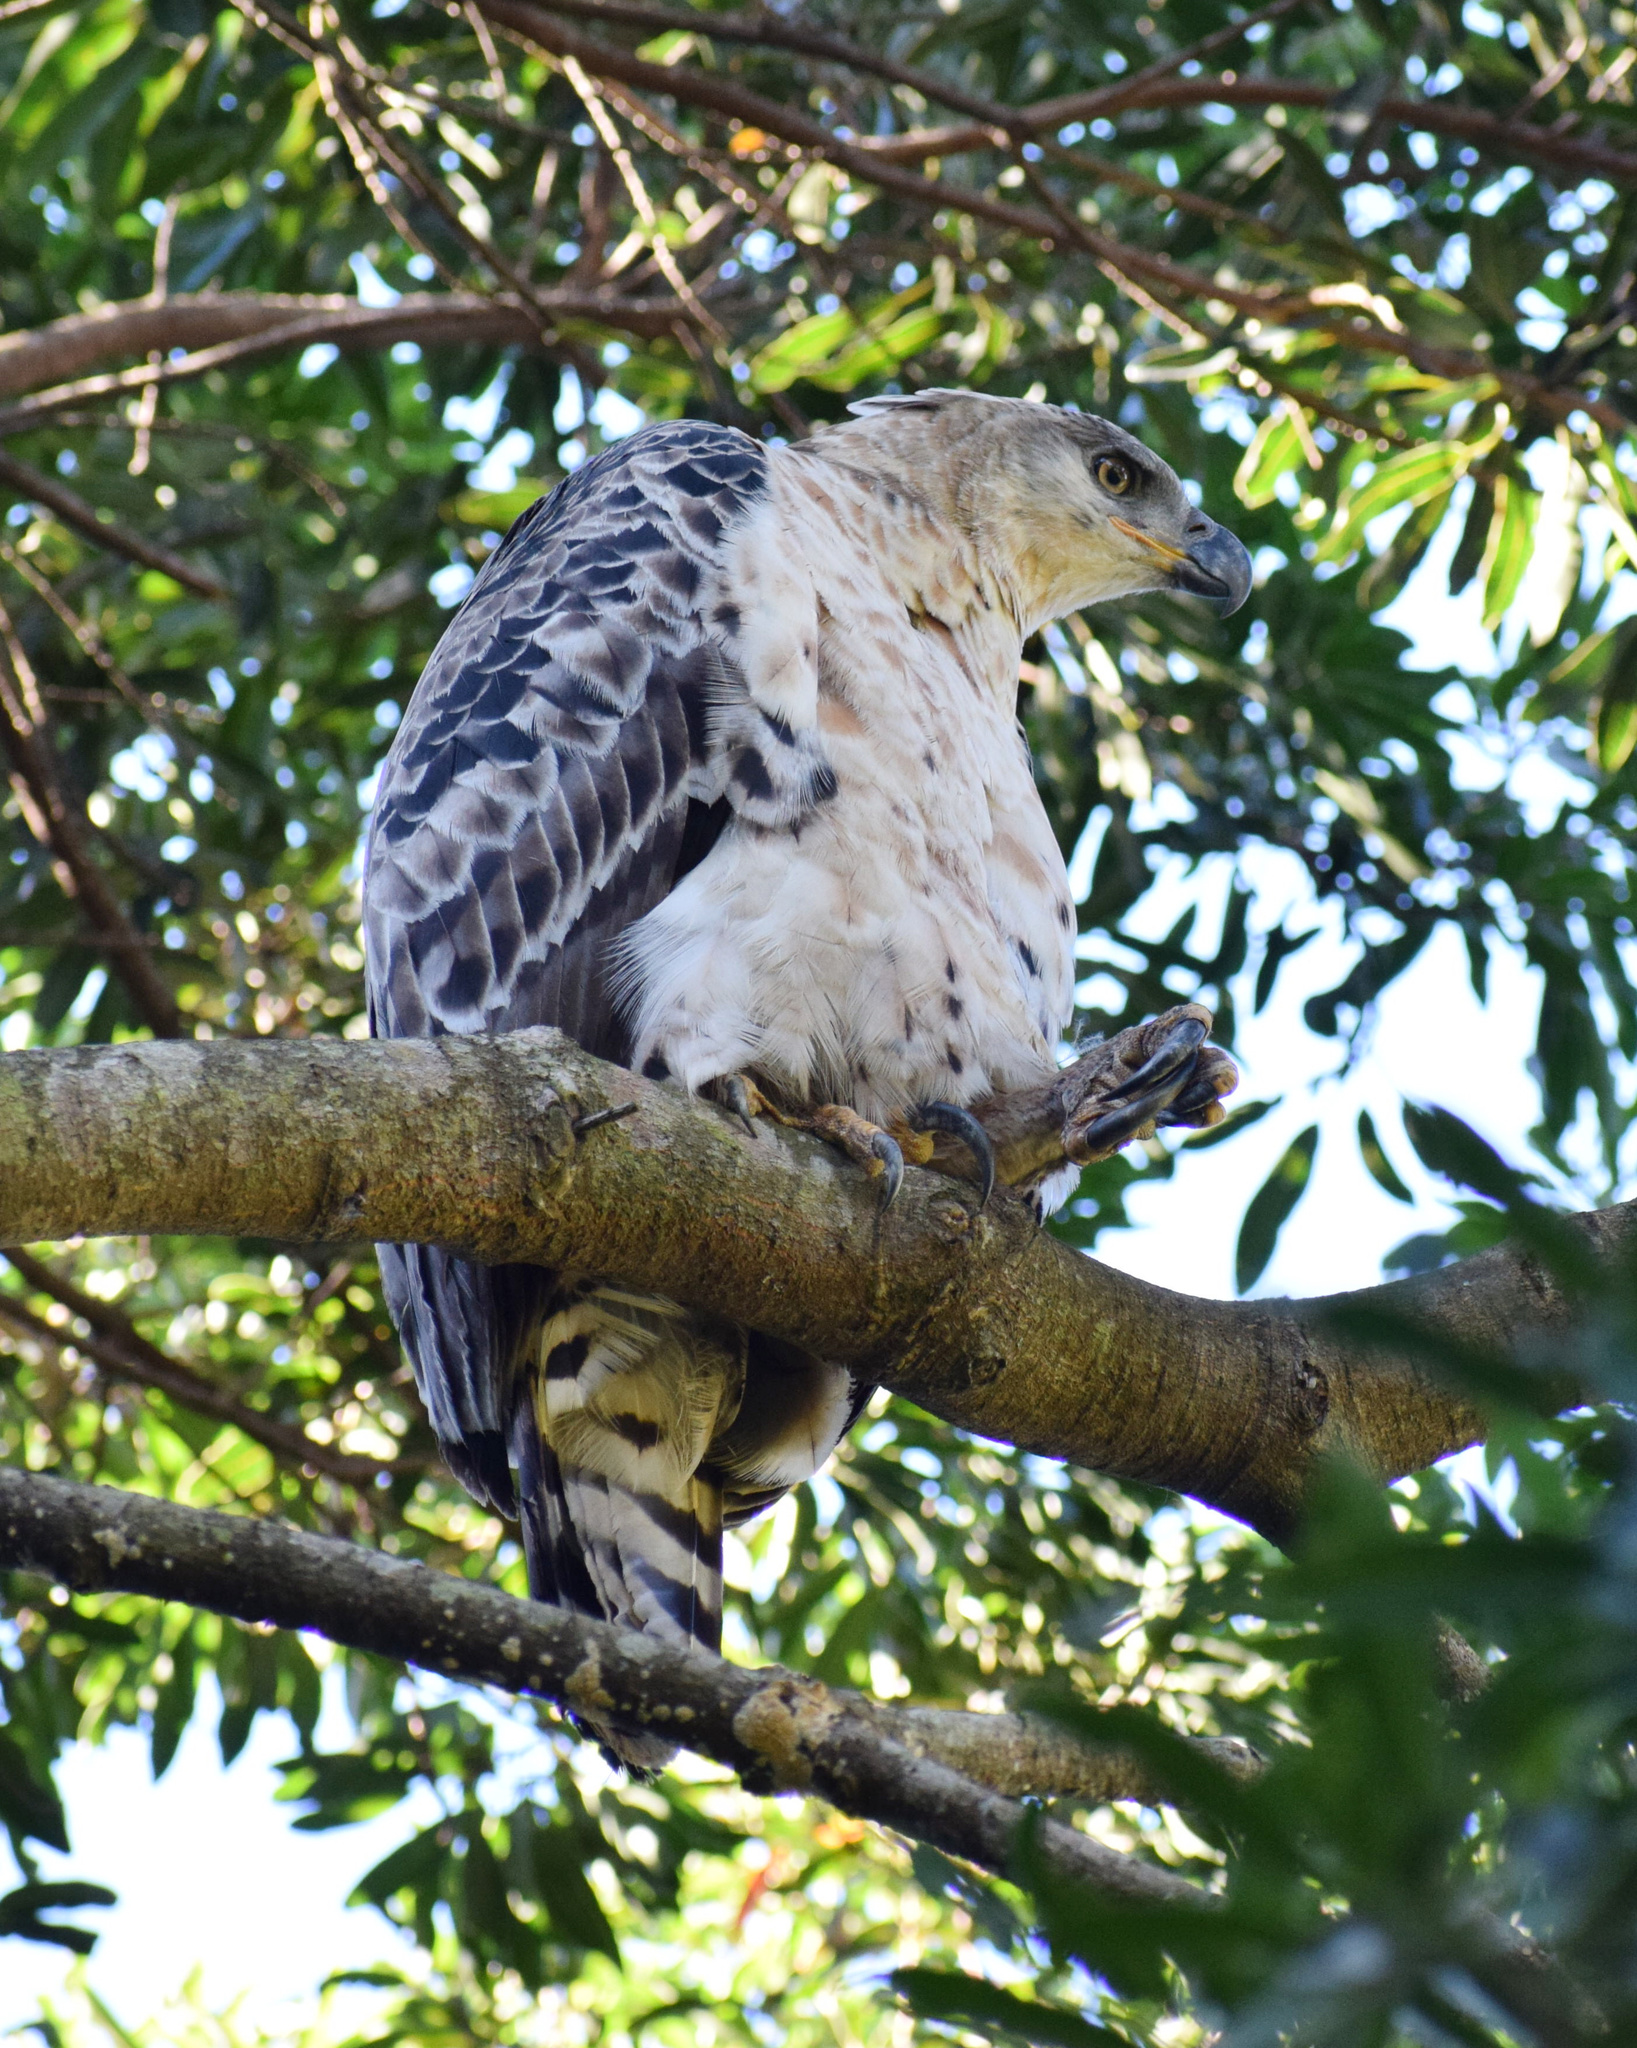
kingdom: Animalia
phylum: Chordata
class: Aves
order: Accipitriformes
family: Accipitridae
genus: Stephanoaetus
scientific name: Stephanoaetus coronatus
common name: Crowned eagle
